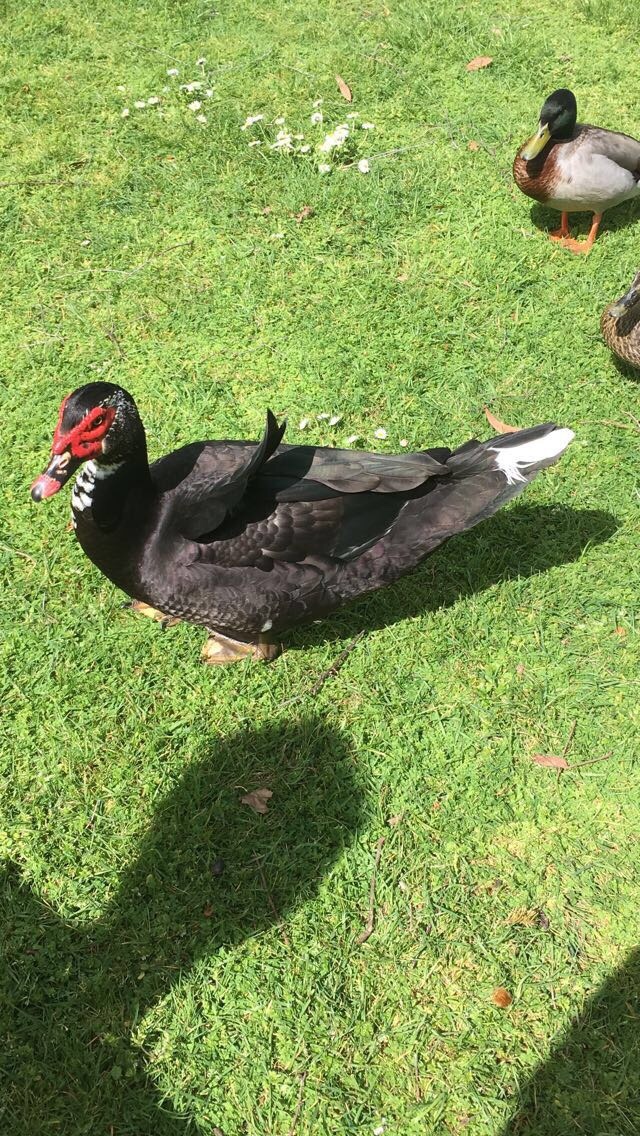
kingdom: Animalia
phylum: Chordata
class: Aves
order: Anseriformes
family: Anatidae
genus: Cairina
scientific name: Cairina moschata
